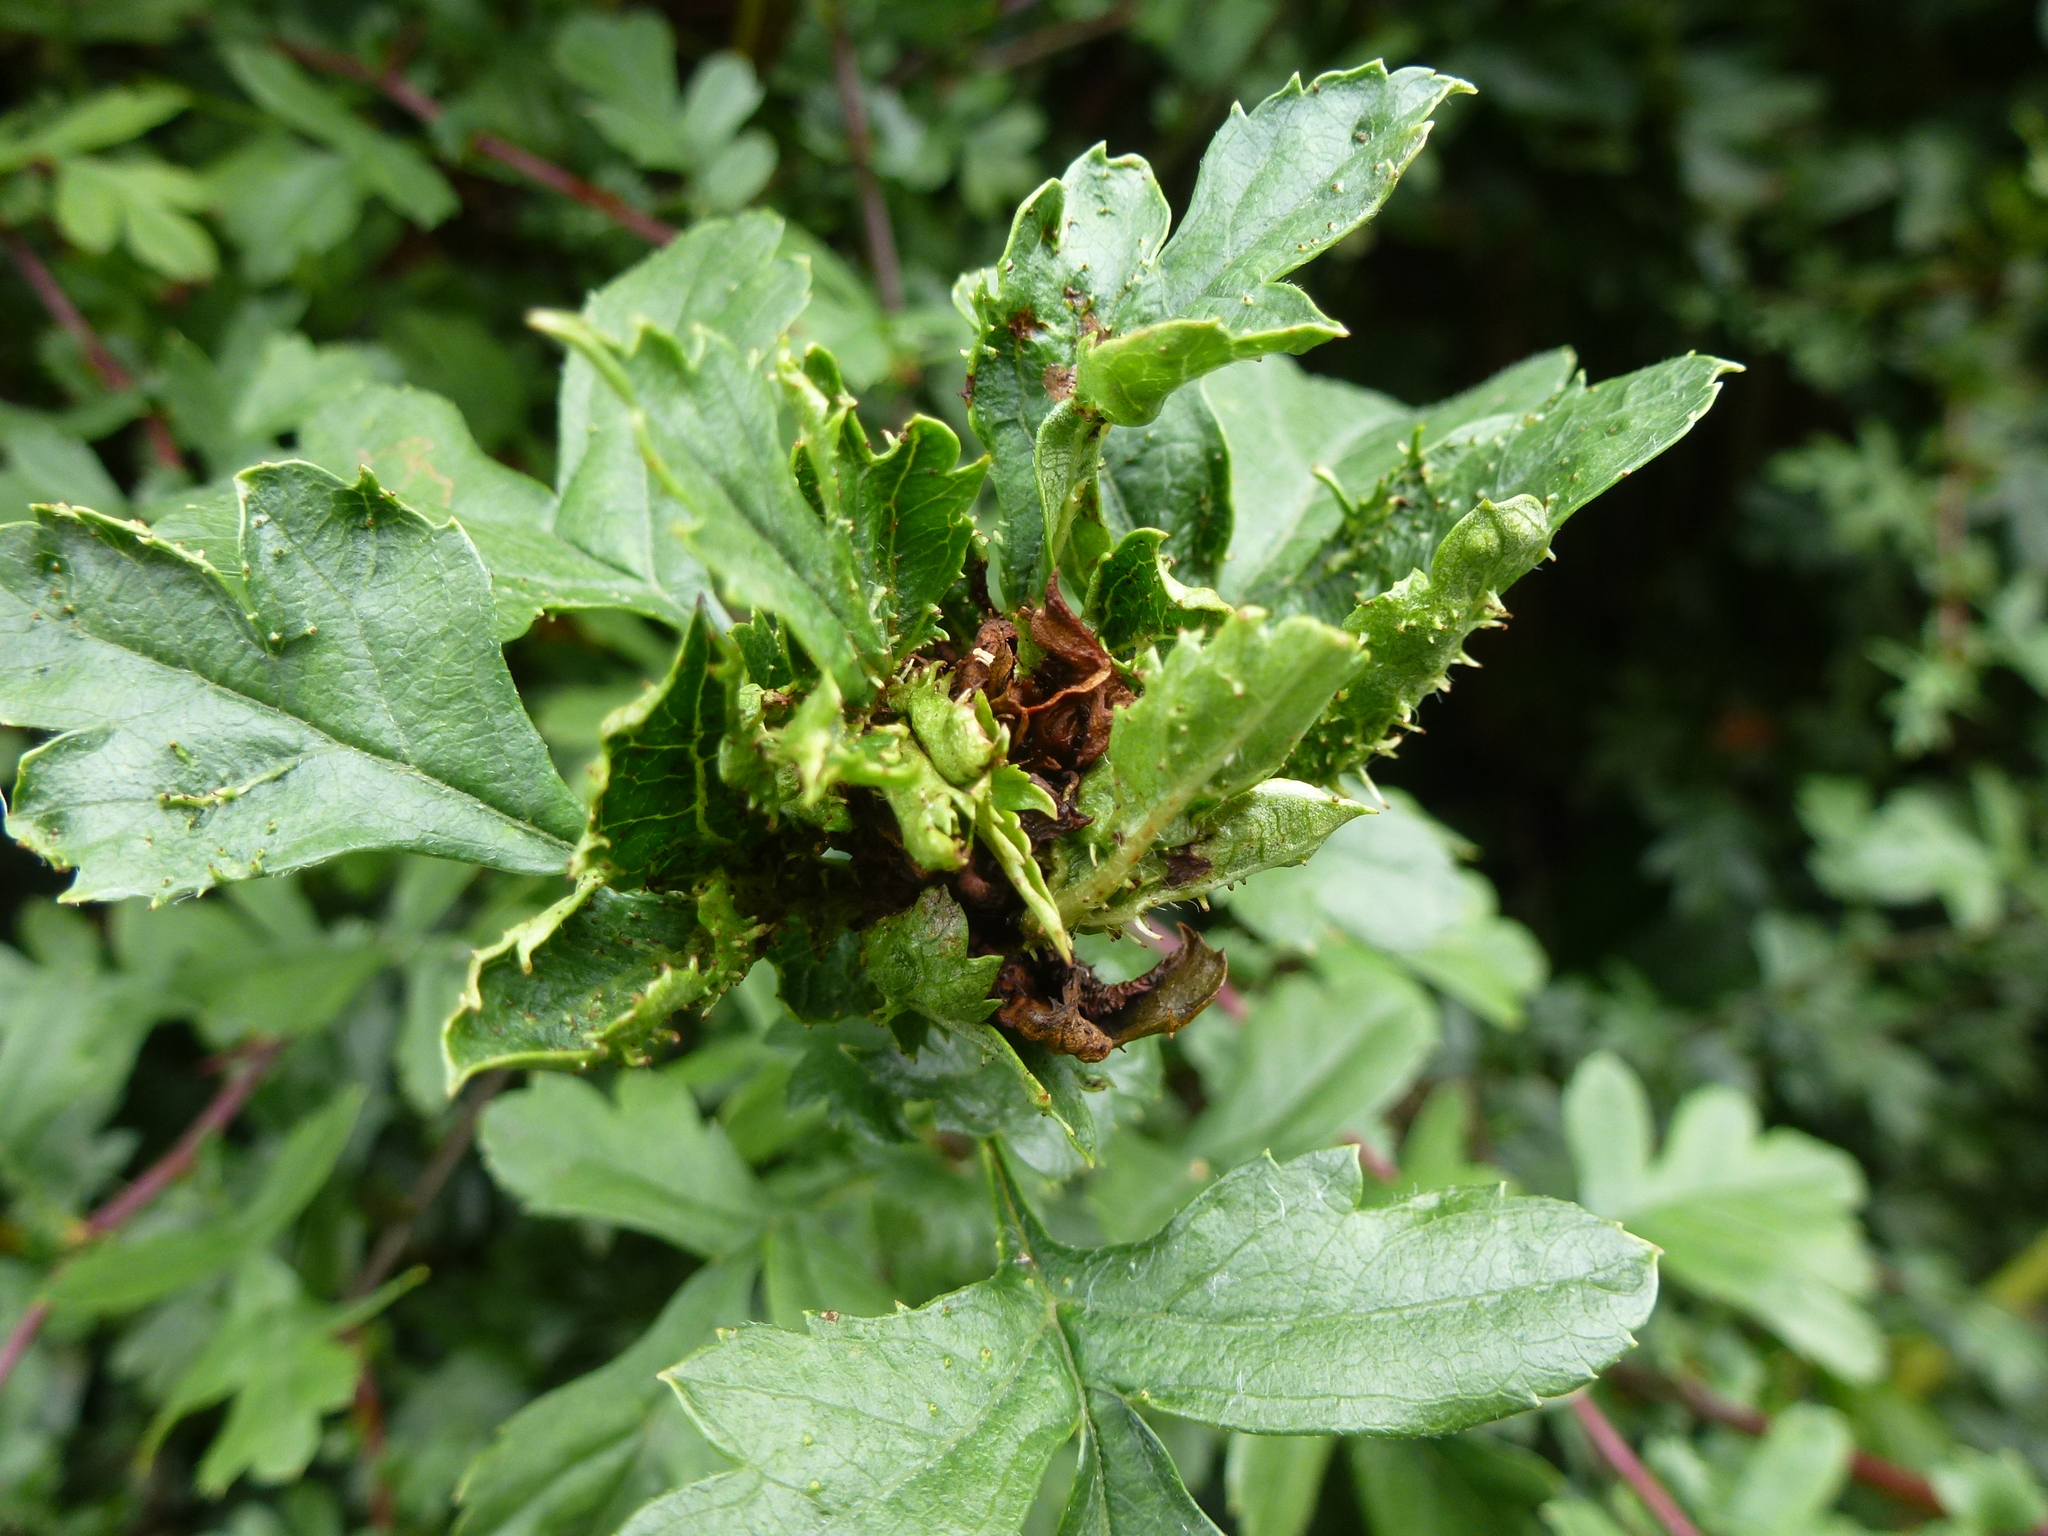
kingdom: Animalia
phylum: Arthropoda
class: Insecta
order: Diptera
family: Cecidomyiidae
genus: Dasineura
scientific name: Dasineura crataegi
